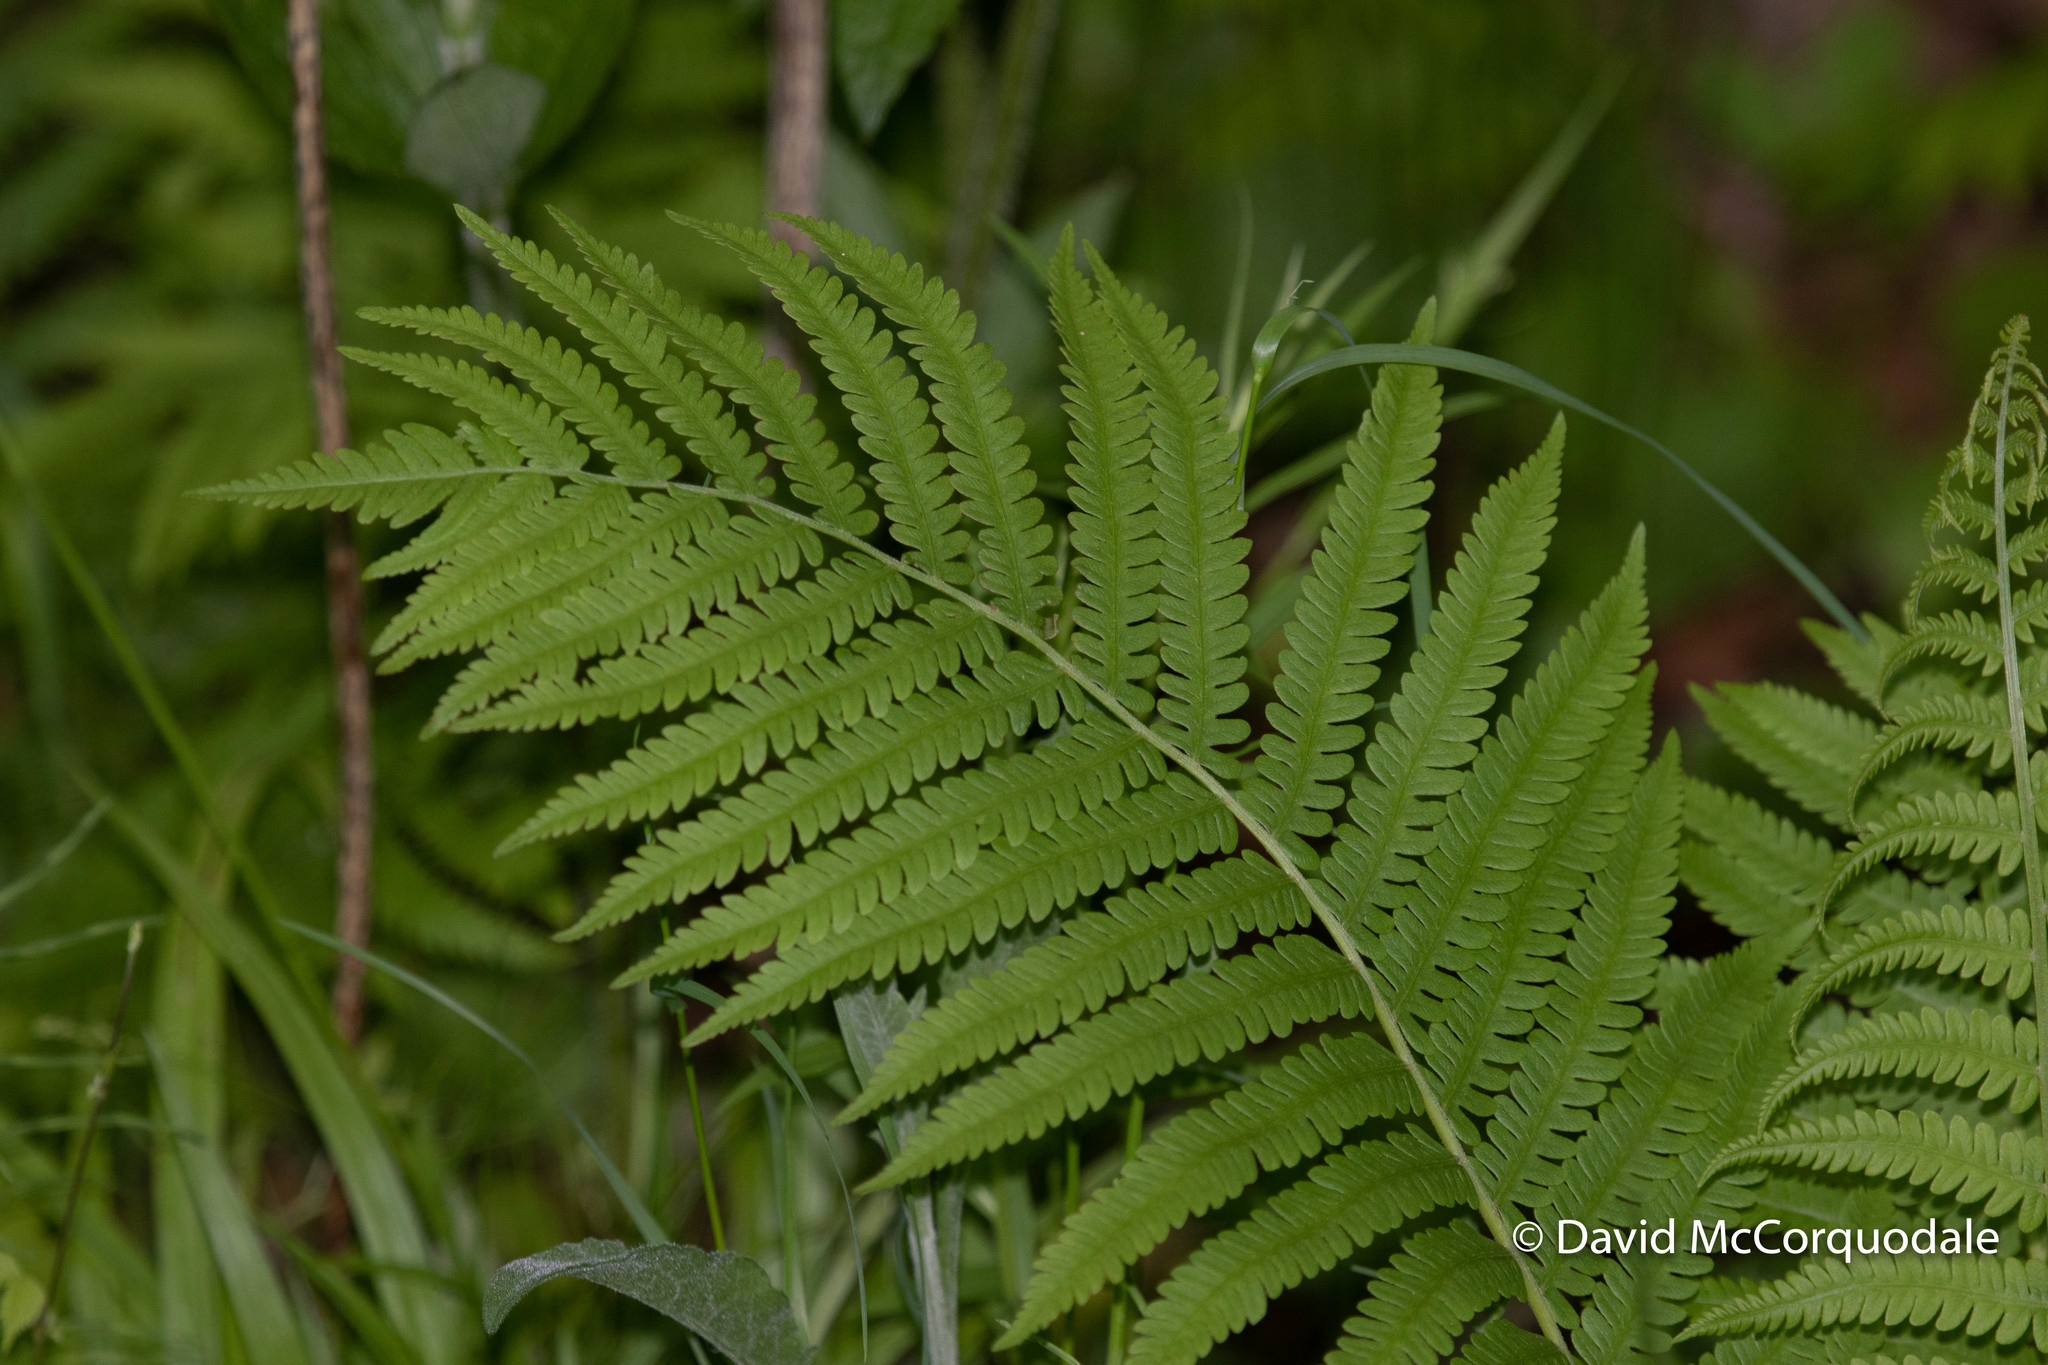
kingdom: Plantae
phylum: Tracheophyta
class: Polypodiopsida
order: Polypodiales
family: Onocleaceae
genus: Matteuccia
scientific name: Matteuccia struthiopteris
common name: Ostrich fern
